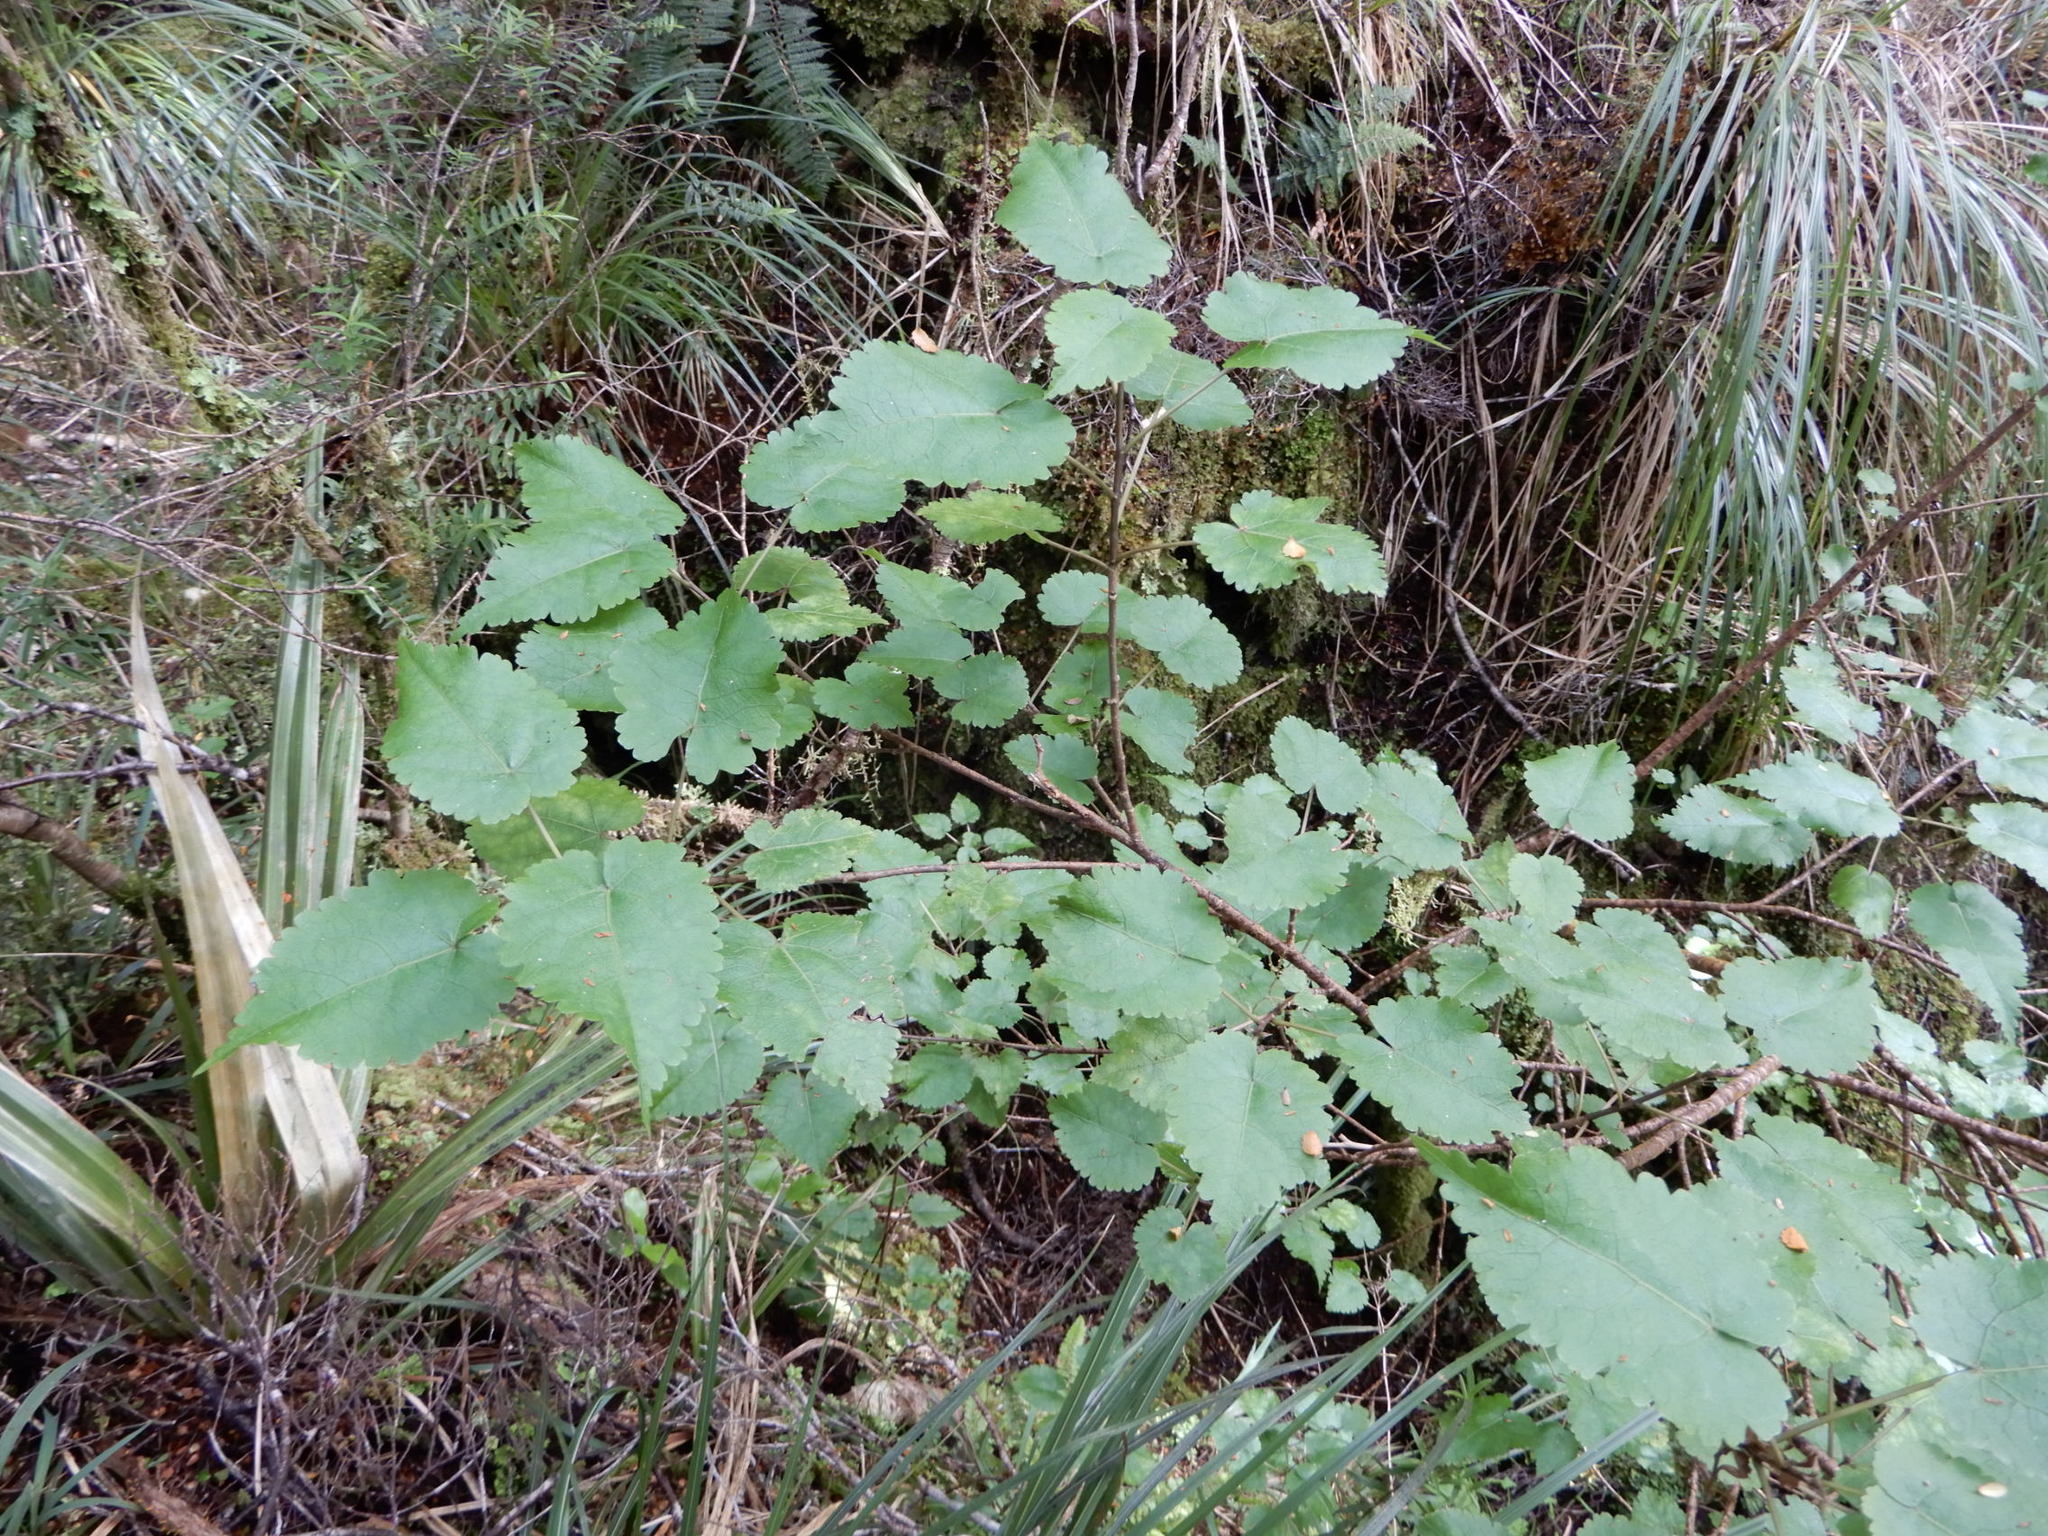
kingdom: Plantae
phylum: Tracheophyta
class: Magnoliopsida
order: Malvales
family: Malvaceae
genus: Hoheria
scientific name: Hoheria glabrata
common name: Mountain-ribbon
